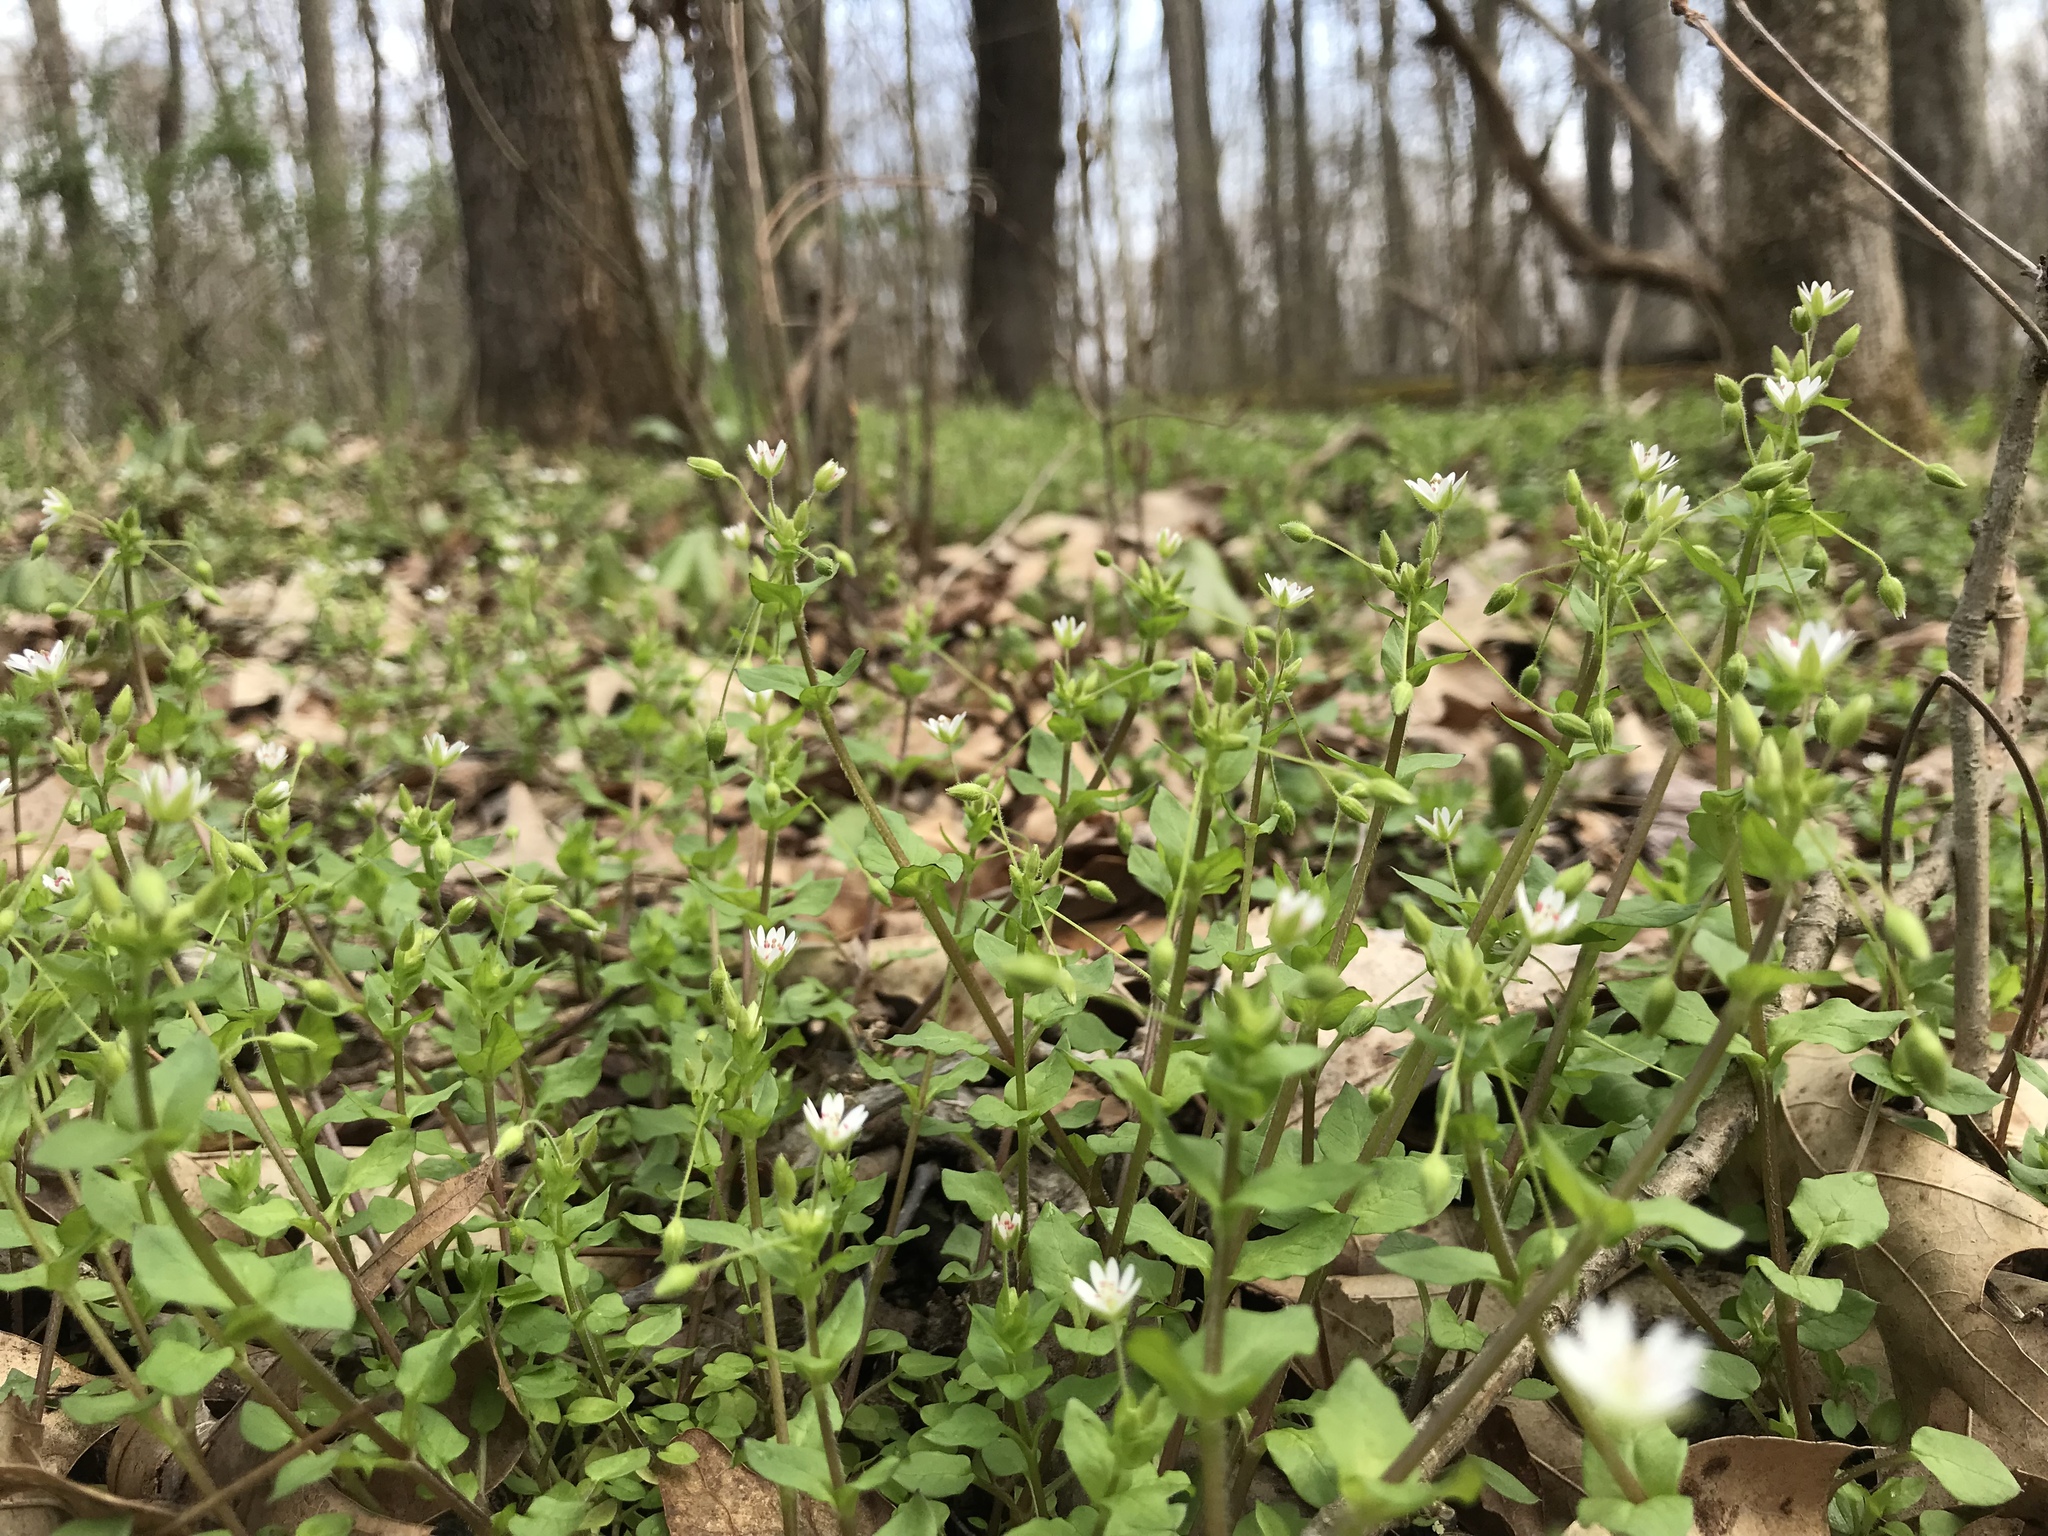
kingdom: Plantae
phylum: Tracheophyta
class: Magnoliopsida
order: Caryophyllales
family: Caryophyllaceae
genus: Stellaria
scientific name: Stellaria media
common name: Common chickweed
